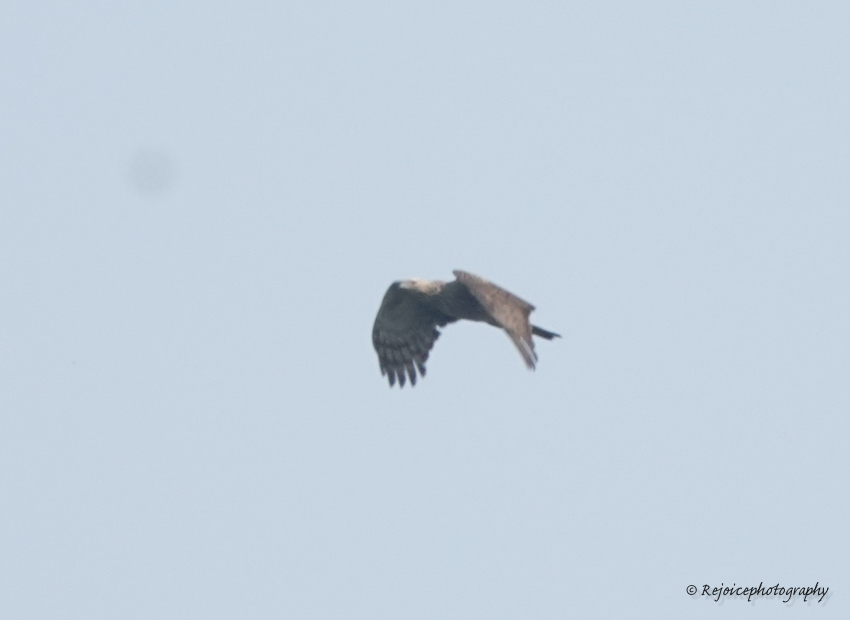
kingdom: Animalia
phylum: Chordata
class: Aves
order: Accipitriformes
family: Accipitridae
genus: Pernis
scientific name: Pernis ptilorhynchus
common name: Crested honey buzzard
